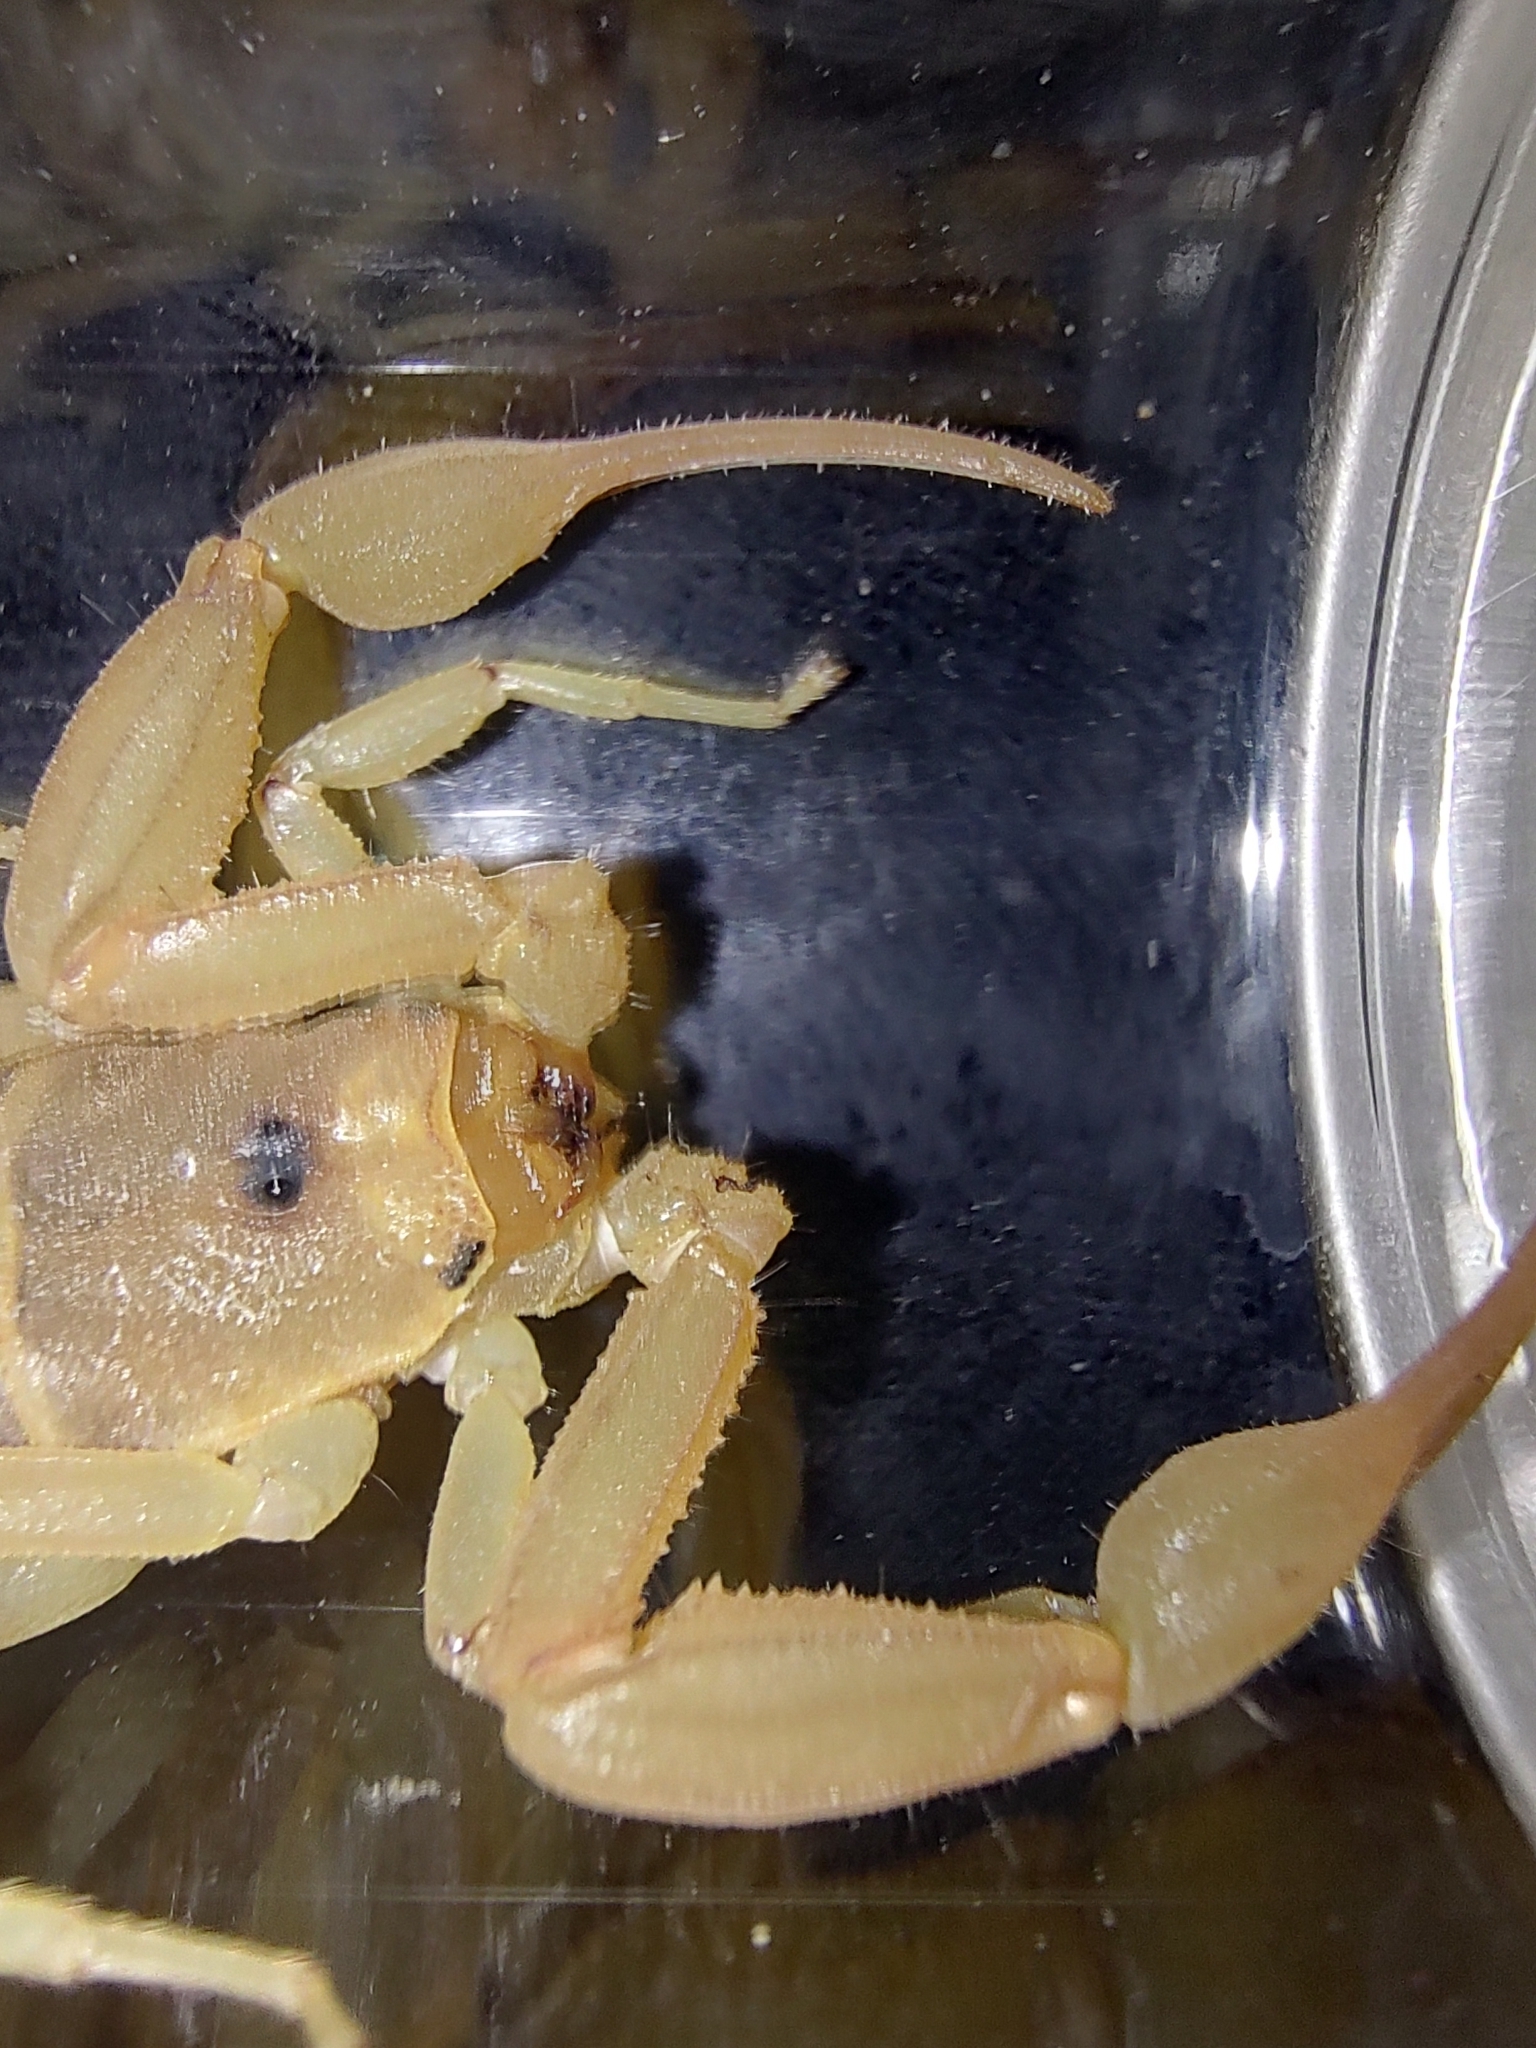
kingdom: Animalia
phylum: Arthropoda
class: Arachnida
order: Scorpiones
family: Buthidae
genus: Centruroides
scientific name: Centruroides exilicauda
